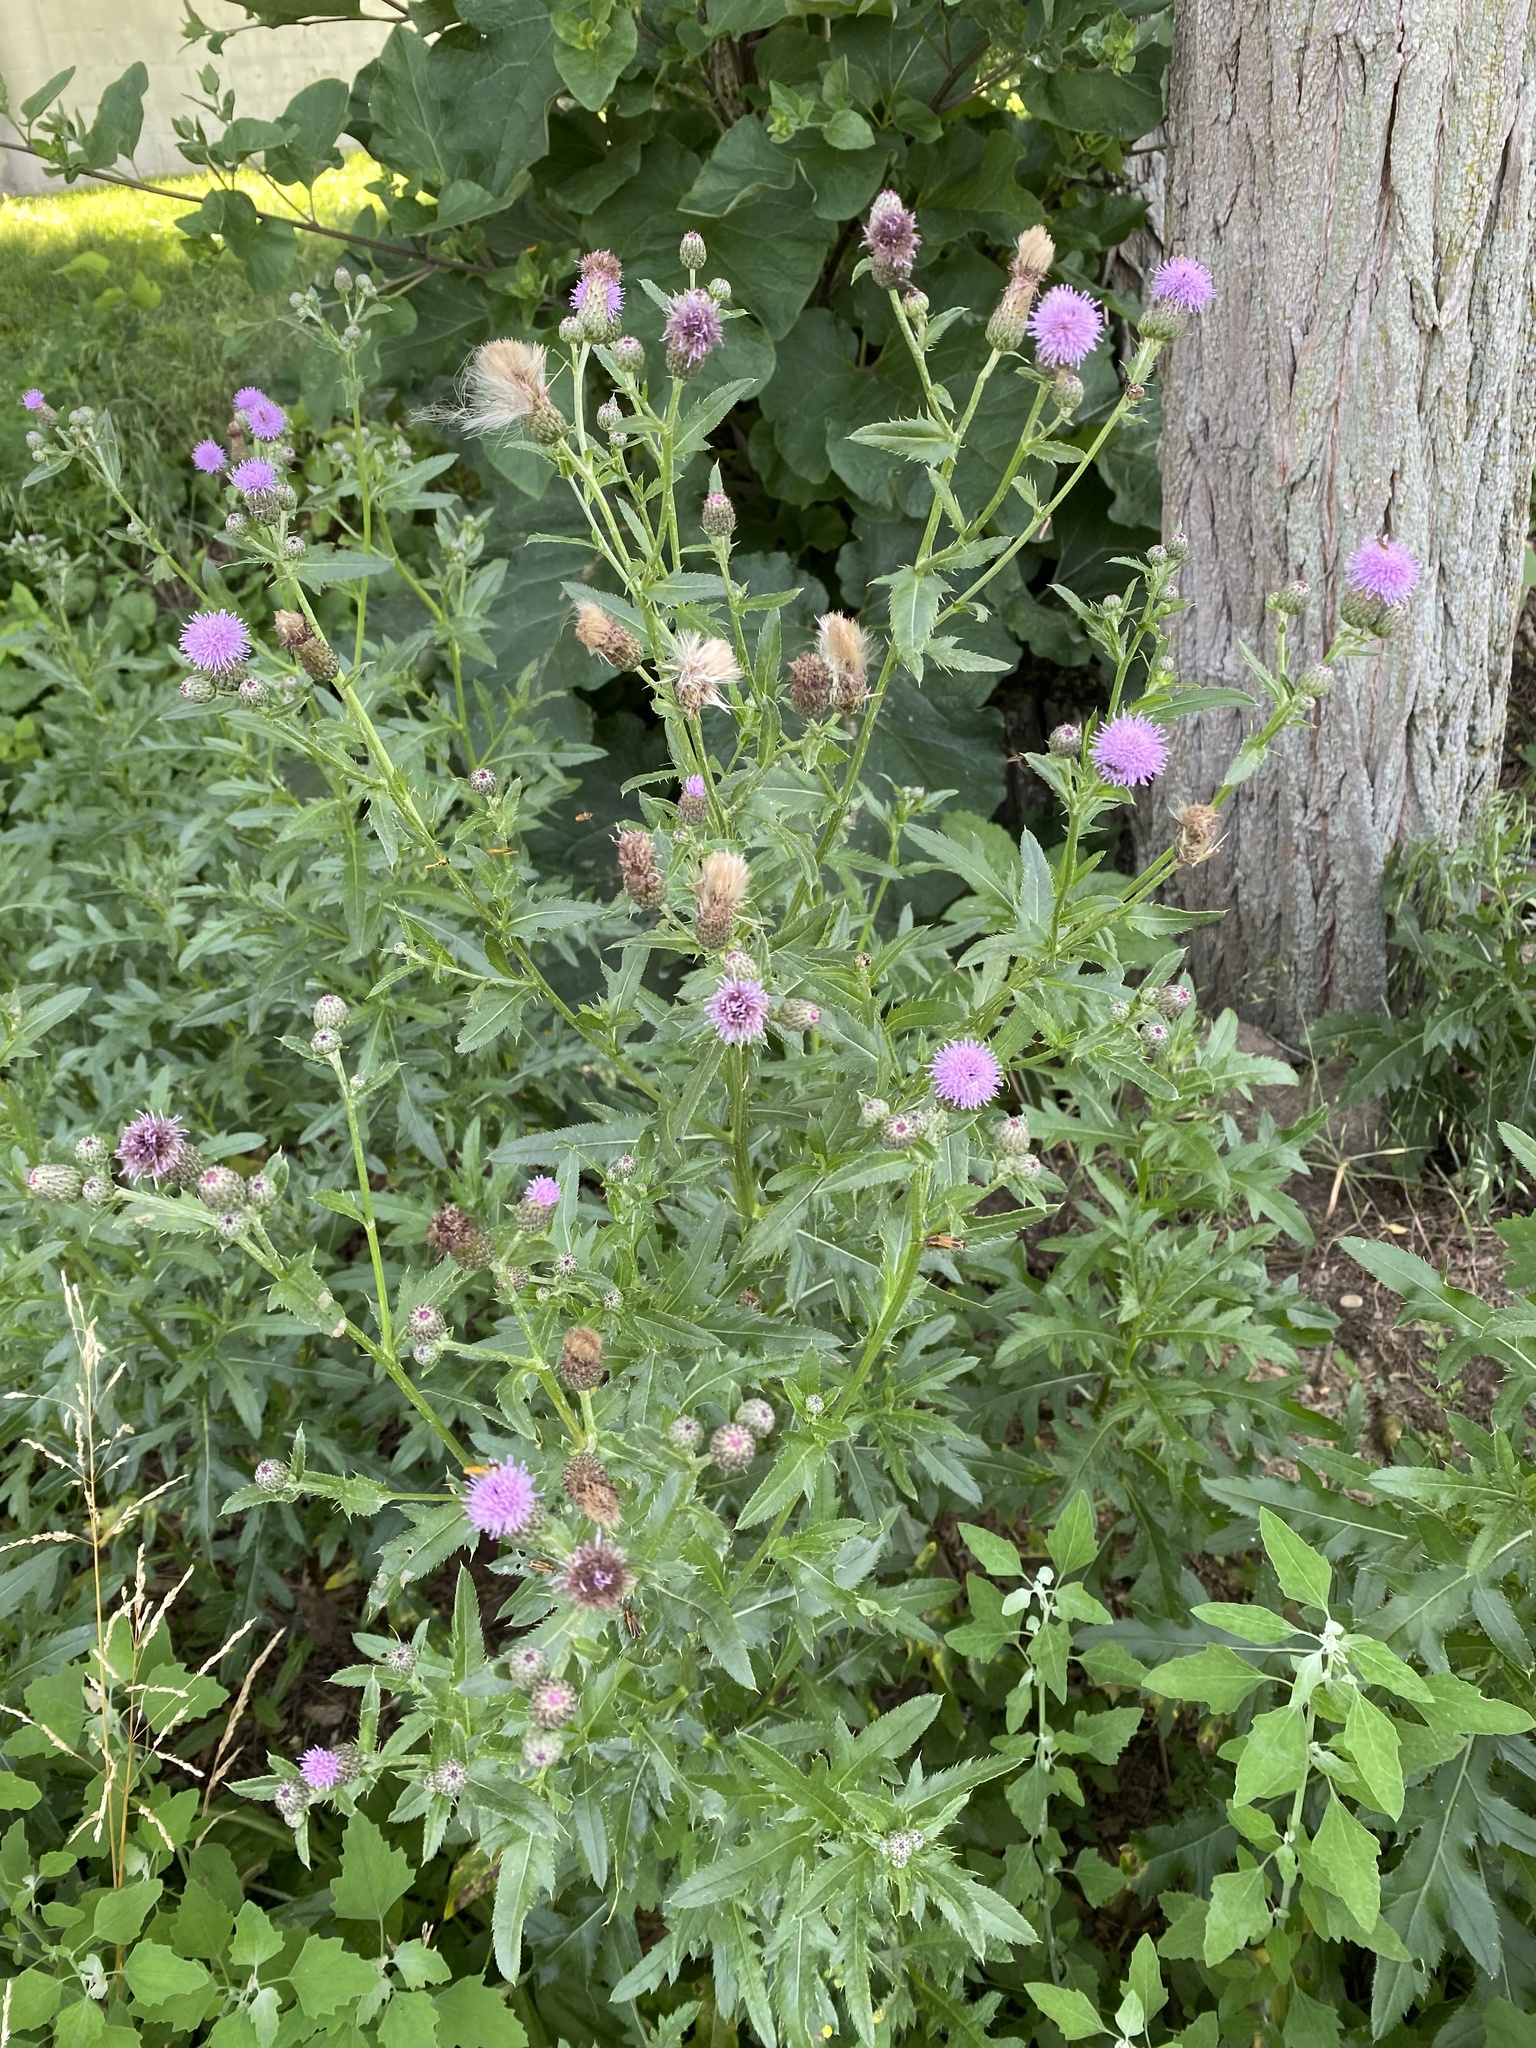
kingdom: Plantae
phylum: Tracheophyta
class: Magnoliopsida
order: Asterales
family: Asteraceae
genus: Cirsium
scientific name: Cirsium arvense
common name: Creeping thistle
